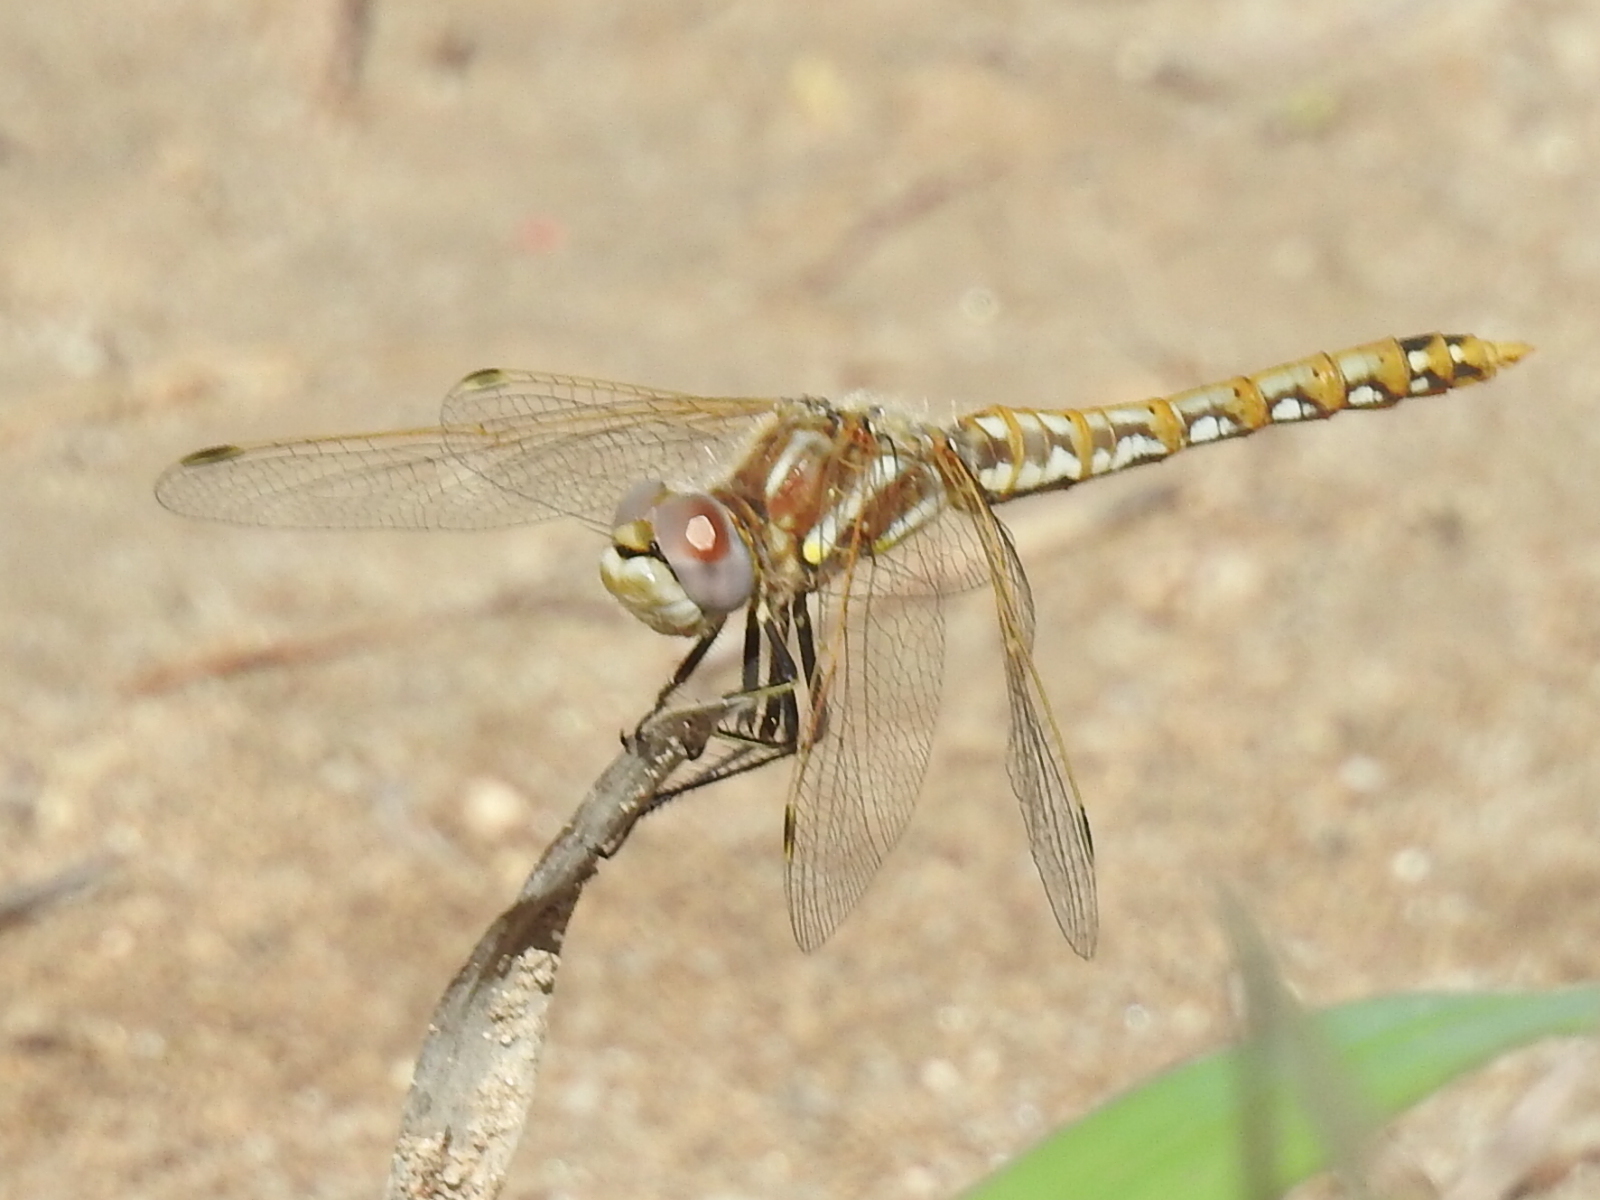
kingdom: Animalia
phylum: Arthropoda
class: Insecta
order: Odonata
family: Libellulidae
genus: Sympetrum
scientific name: Sympetrum corruptum
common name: Variegated meadowhawk
